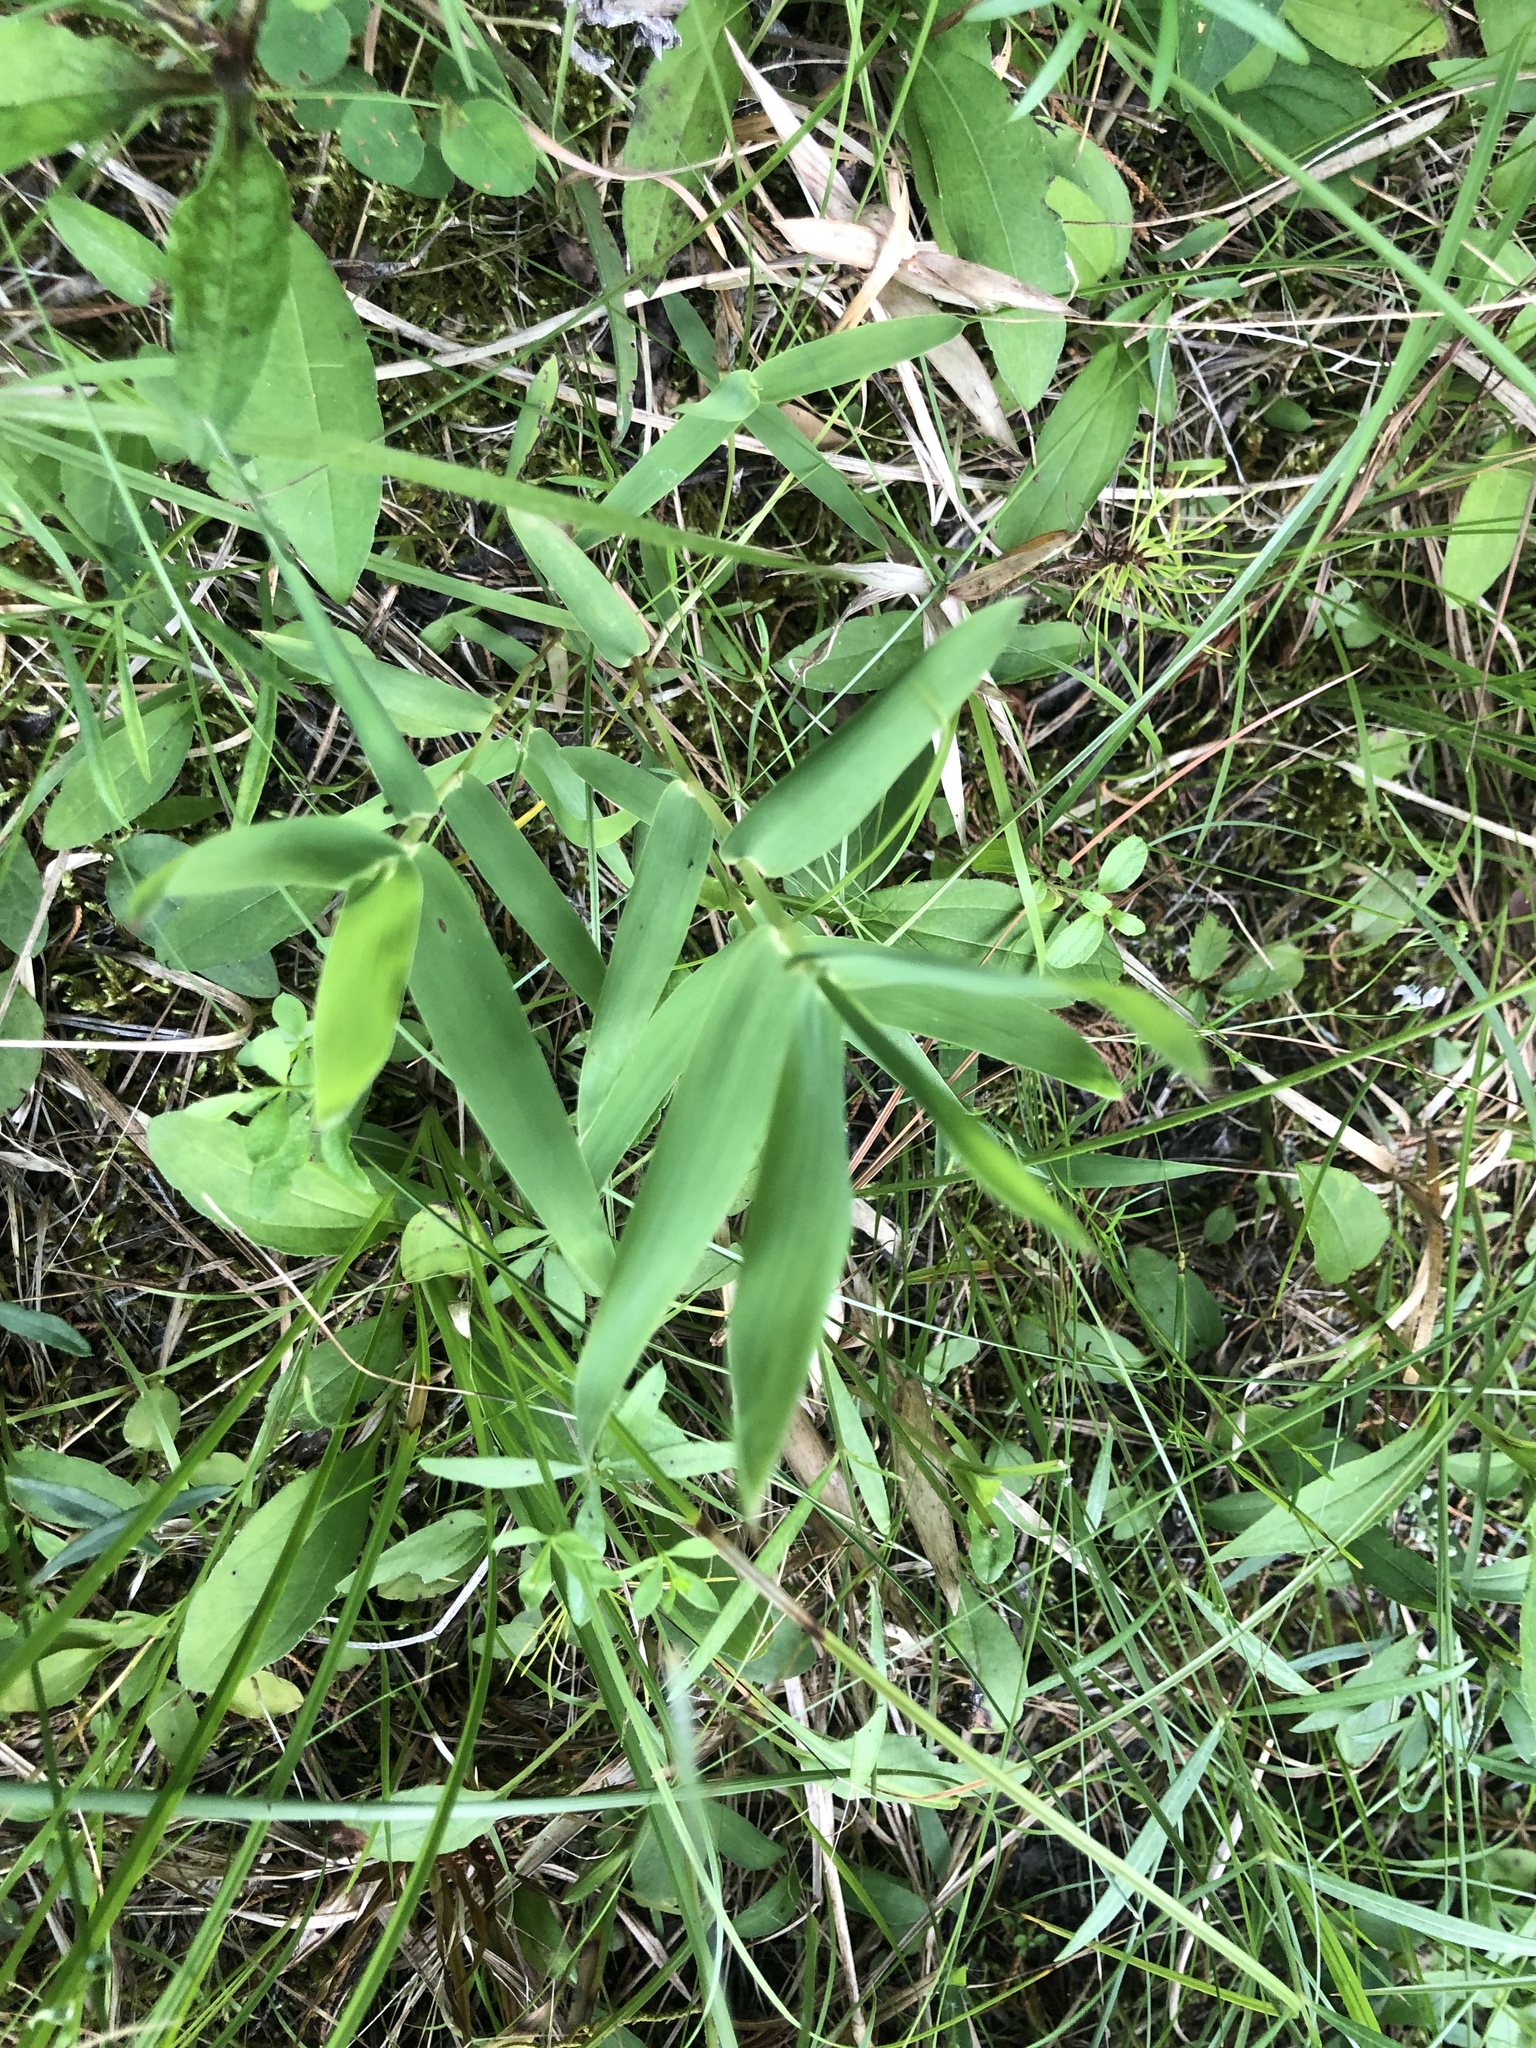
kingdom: Plantae
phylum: Tracheophyta
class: Liliopsida
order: Poales
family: Poaceae
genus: Gymnopogon
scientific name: Gymnopogon ambiguus
